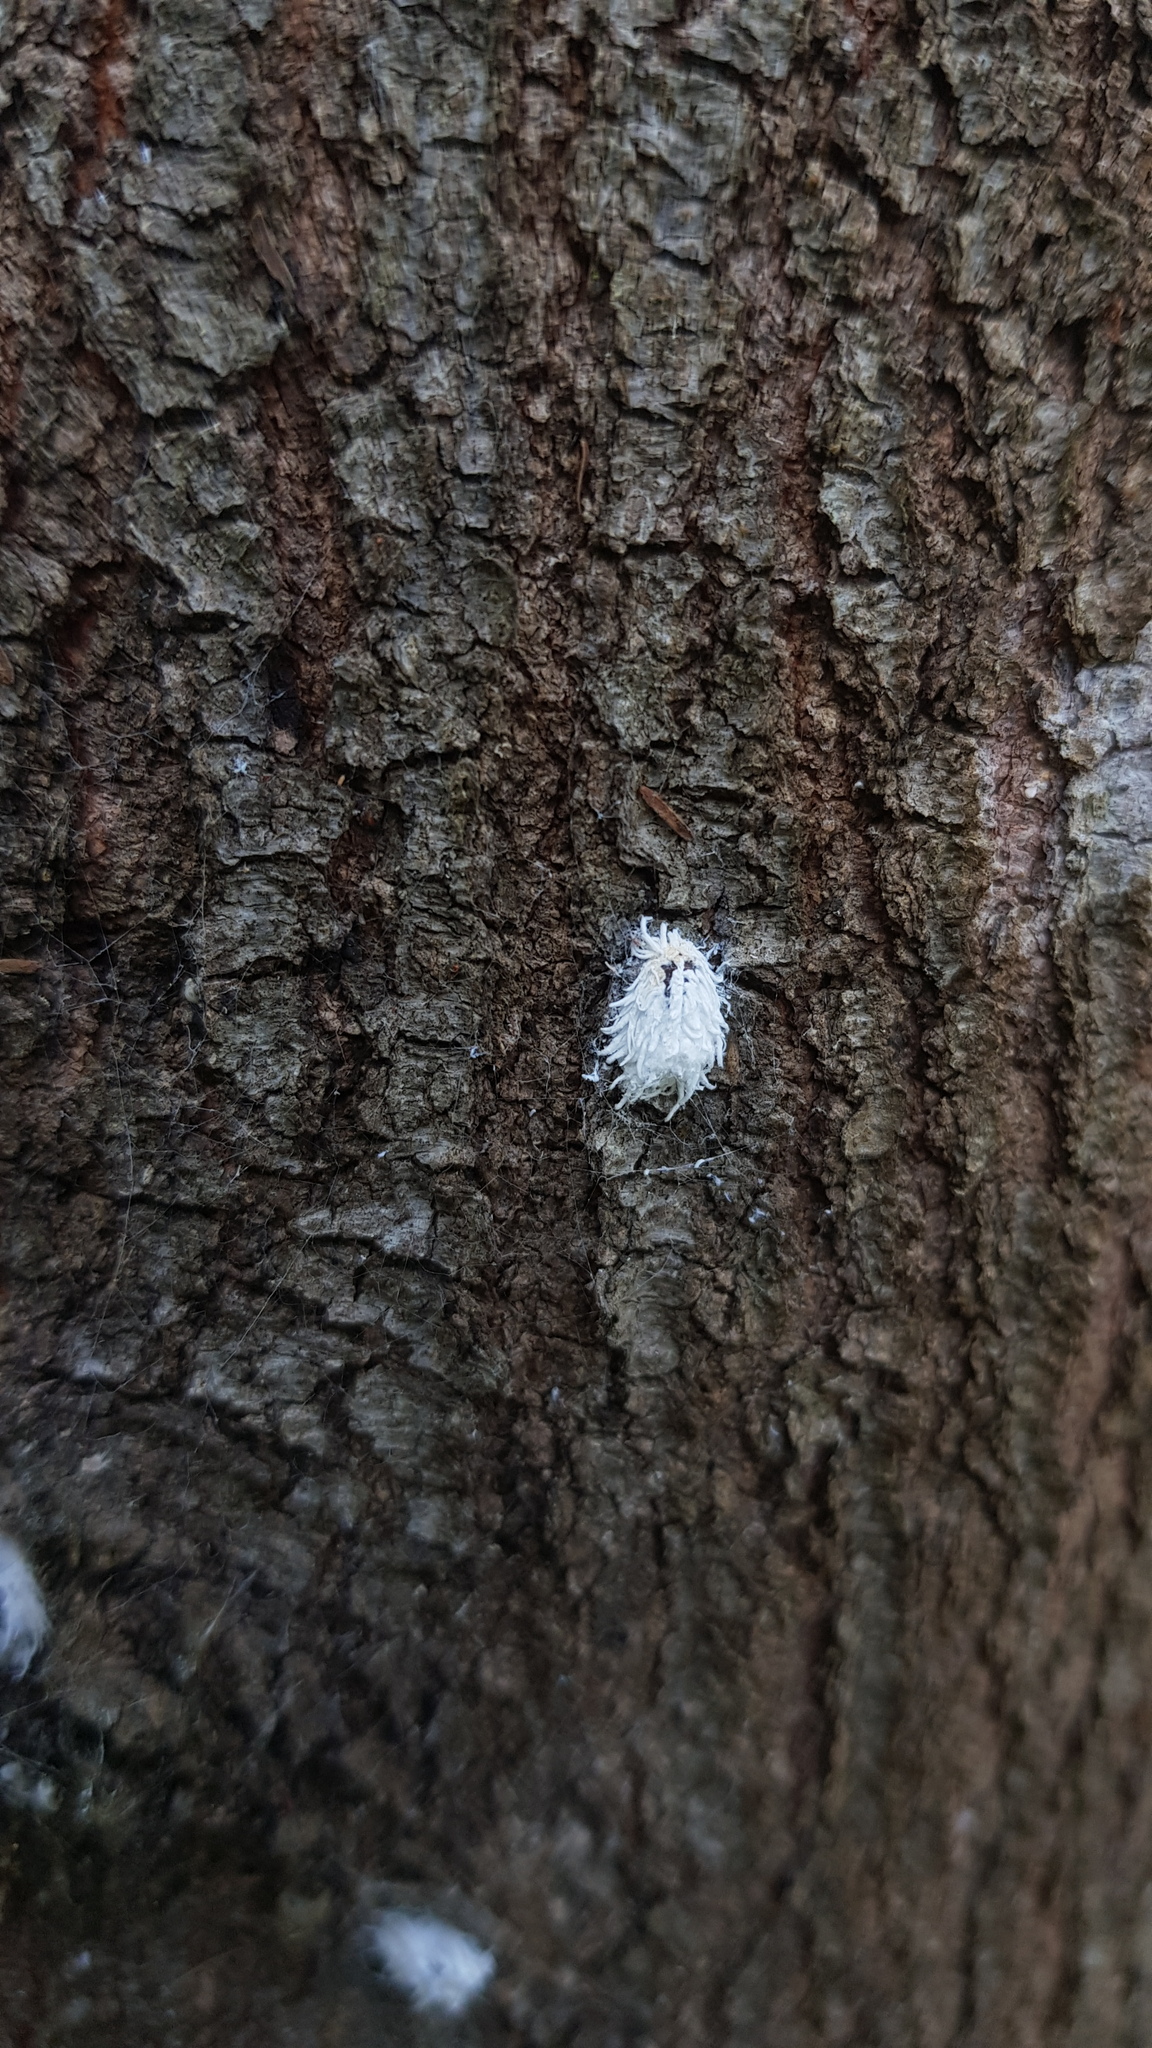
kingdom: Animalia
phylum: Arthropoda
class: Insecta
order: Coleoptera
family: Coccinellidae
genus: Cryptolaemus
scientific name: Cryptolaemus montrouzieri
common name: Mealybug destroyer
